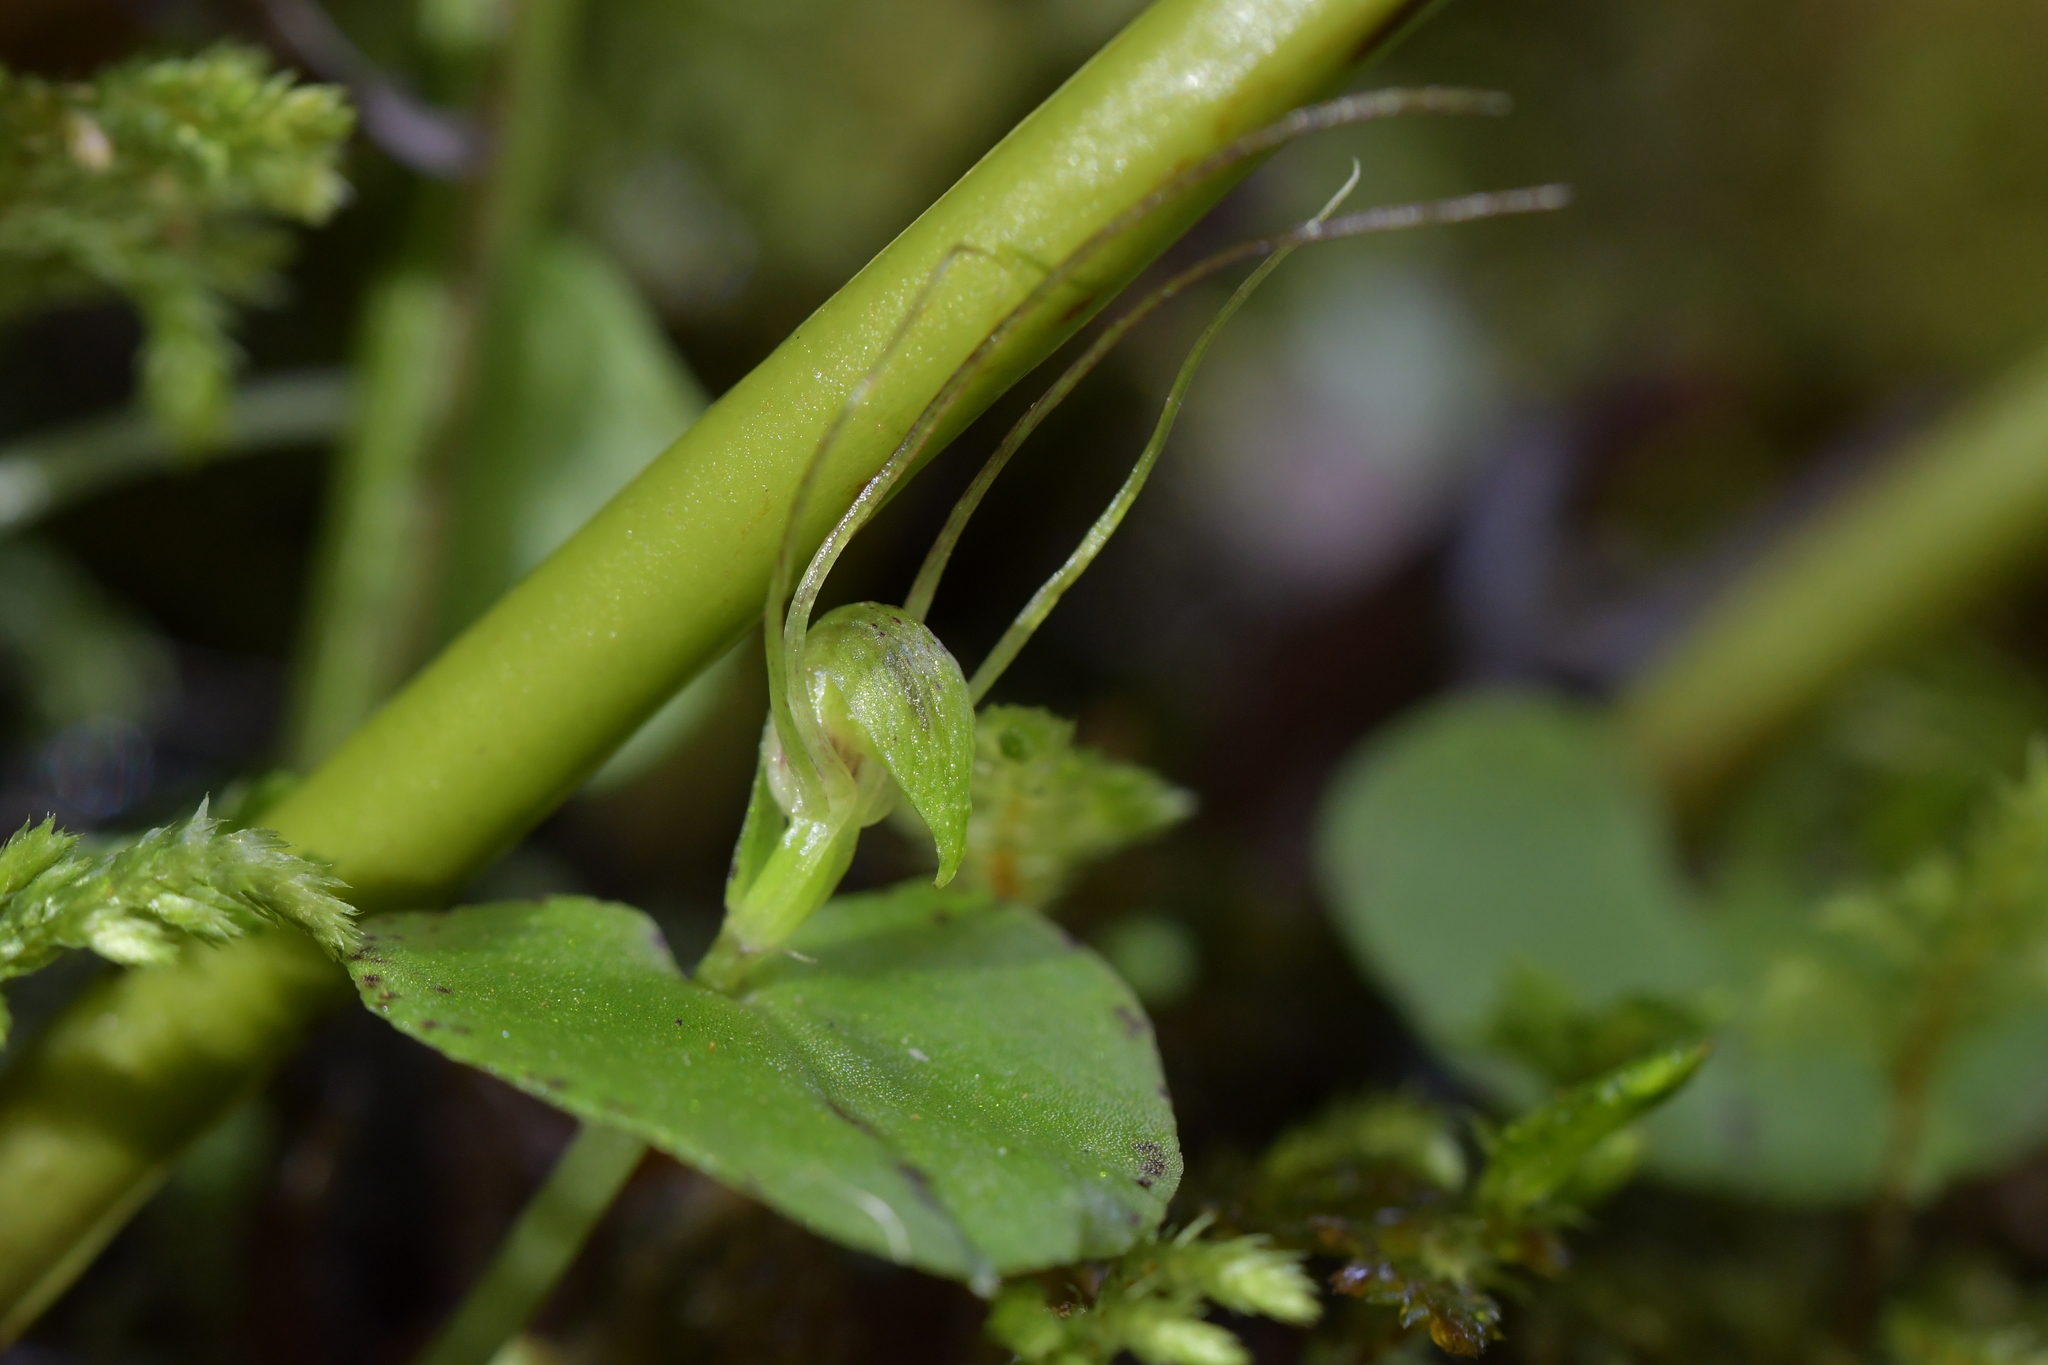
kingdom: Plantae
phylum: Tracheophyta
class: Liliopsida
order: Asparagales
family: Orchidaceae
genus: Corybas
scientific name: Corybas rivularis
